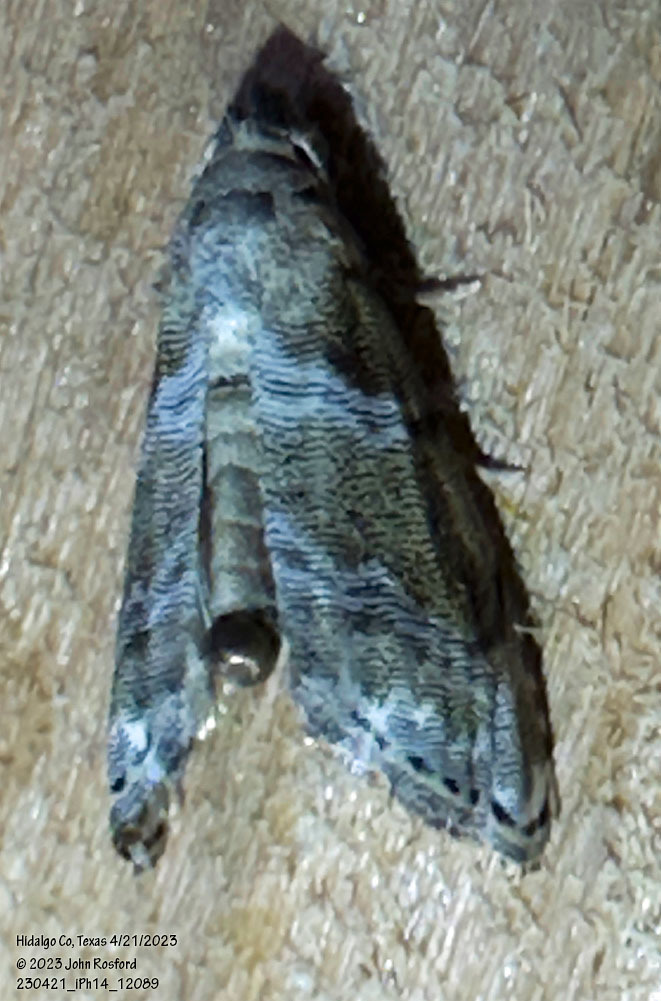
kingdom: Animalia
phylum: Arthropoda
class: Insecta
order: Lepidoptera
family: Noctuidae
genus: Abablemma
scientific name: Abablemma bilineata
